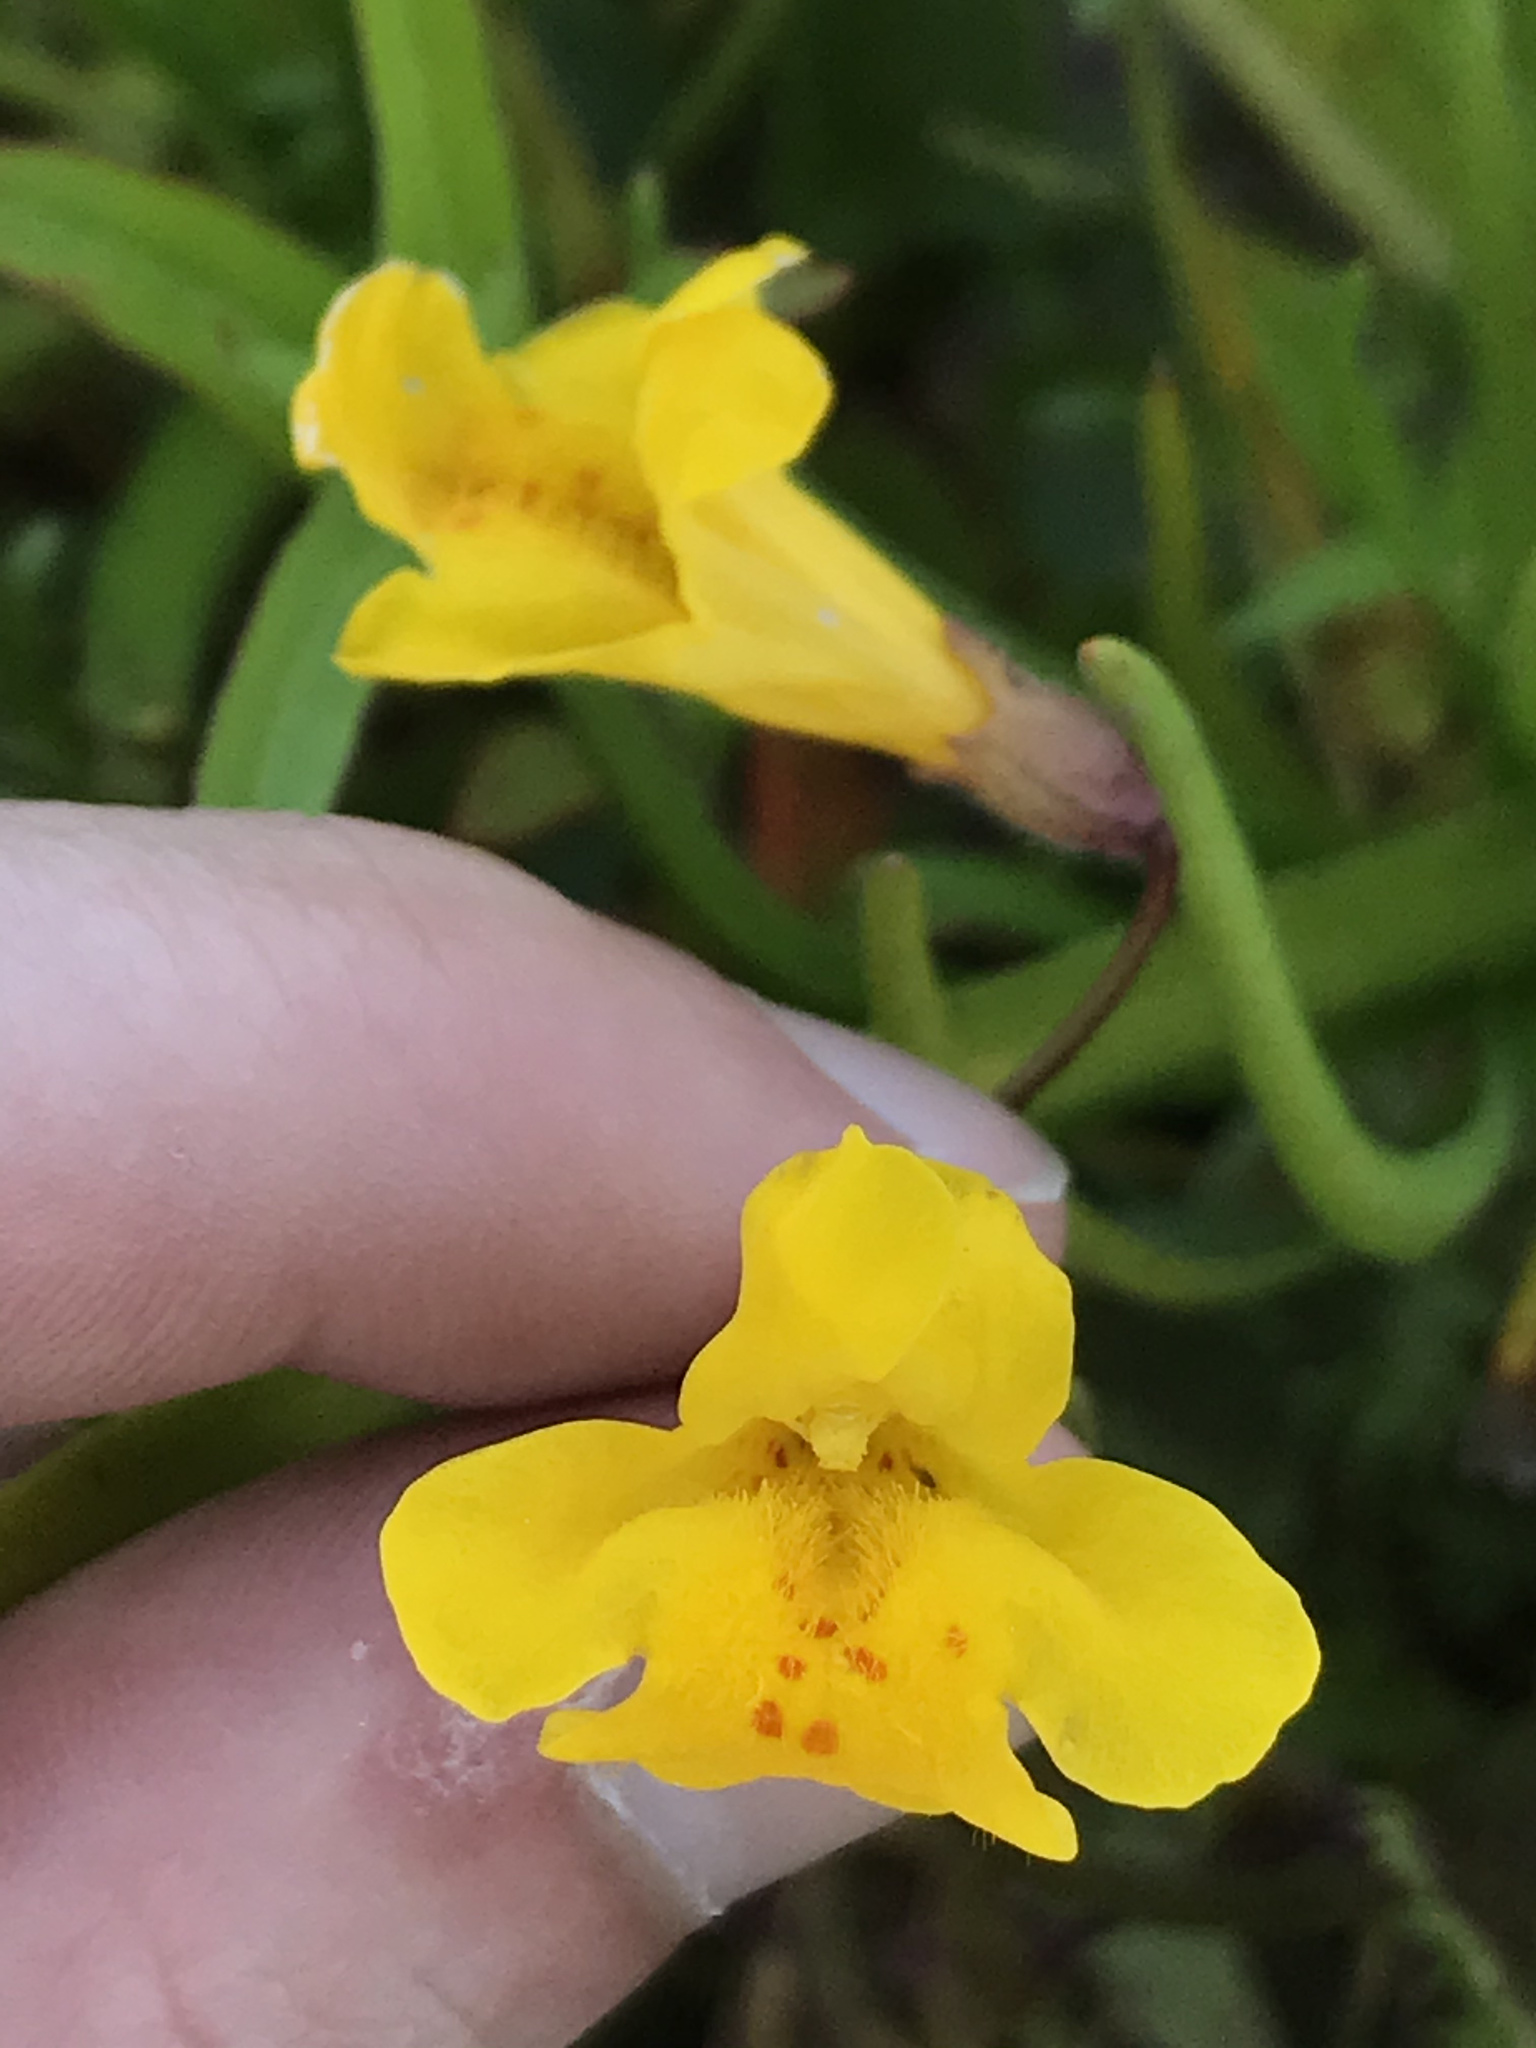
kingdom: Plantae
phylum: Tracheophyta
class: Magnoliopsida
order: Lamiales
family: Phrymaceae
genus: Erythranthe
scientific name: Erythranthe guttata
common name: Monkeyflower
